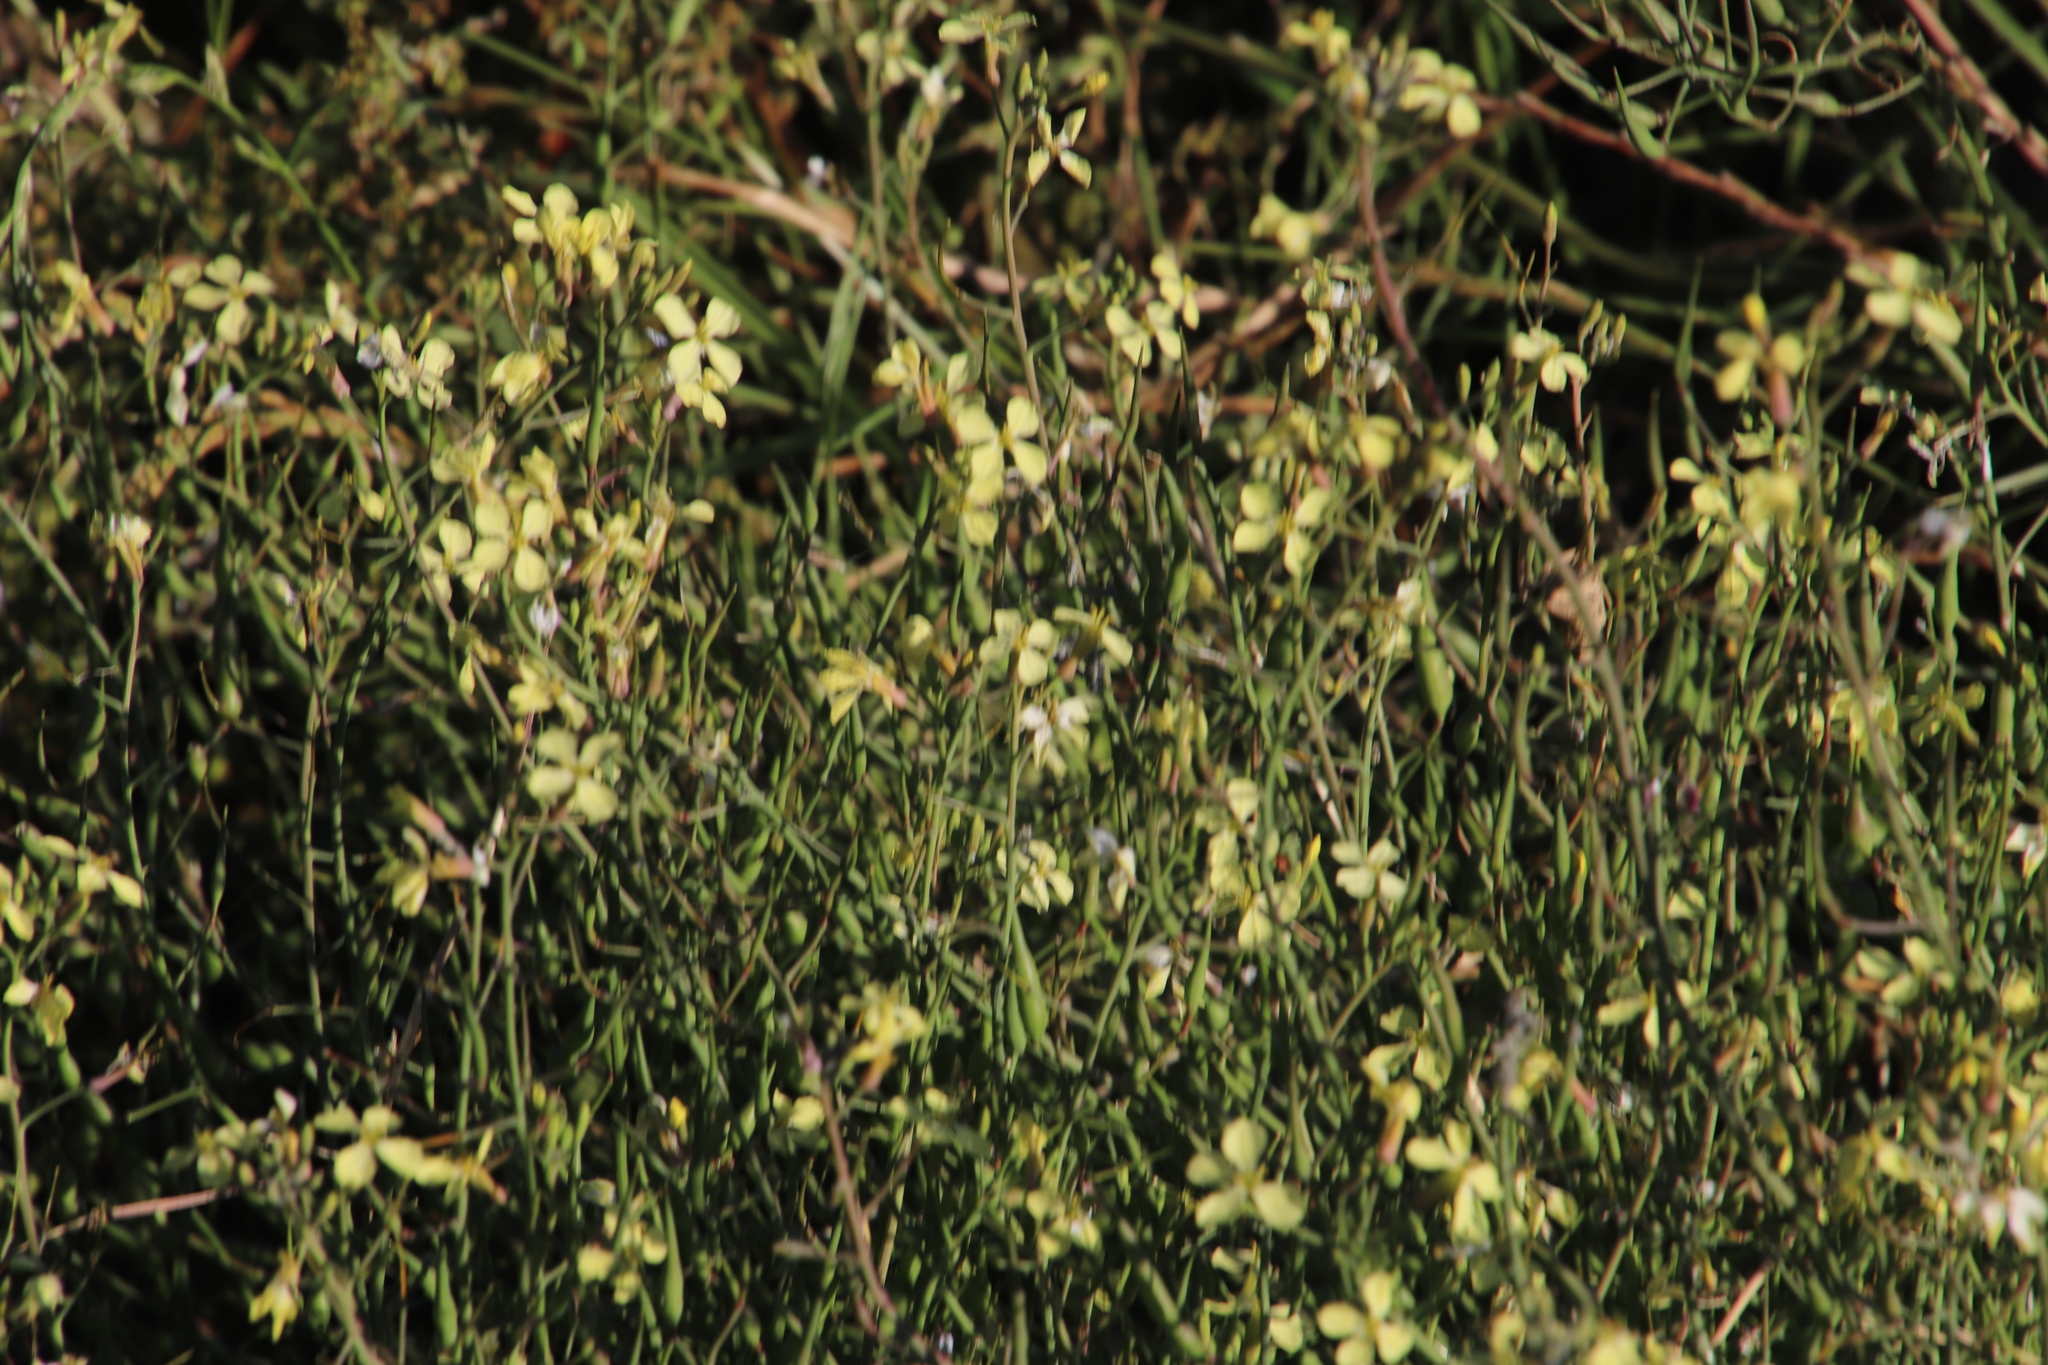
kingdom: Plantae
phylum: Tracheophyta
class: Magnoliopsida
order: Brassicales
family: Brassicaceae
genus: Raphanus
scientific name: Raphanus raphanistrum
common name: Wild radish
